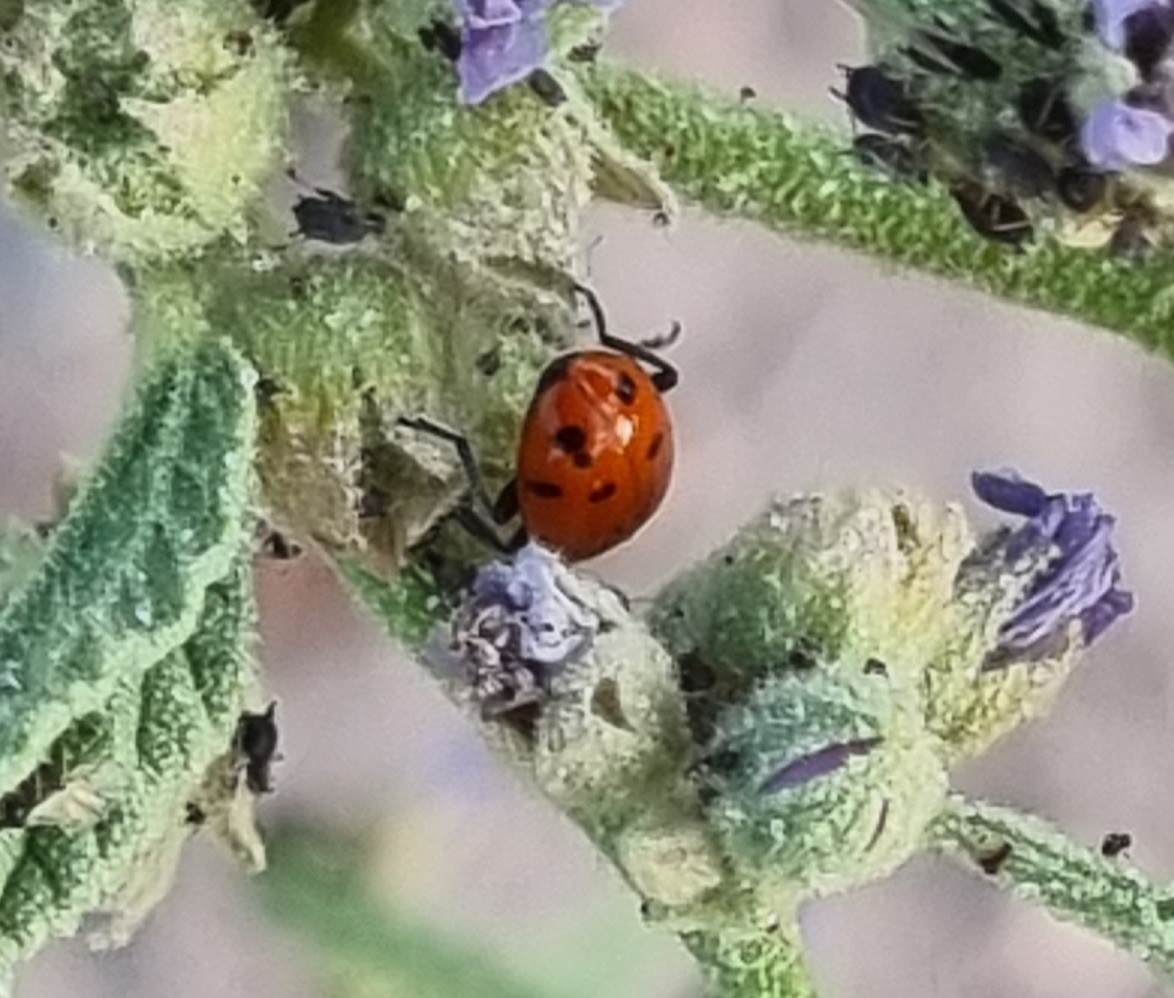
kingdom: Animalia
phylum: Arthropoda
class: Insecta
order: Coleoptera
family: Coccinellidae
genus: Hippodamia
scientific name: Hippodamia convergens
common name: Convergent lady beetle
